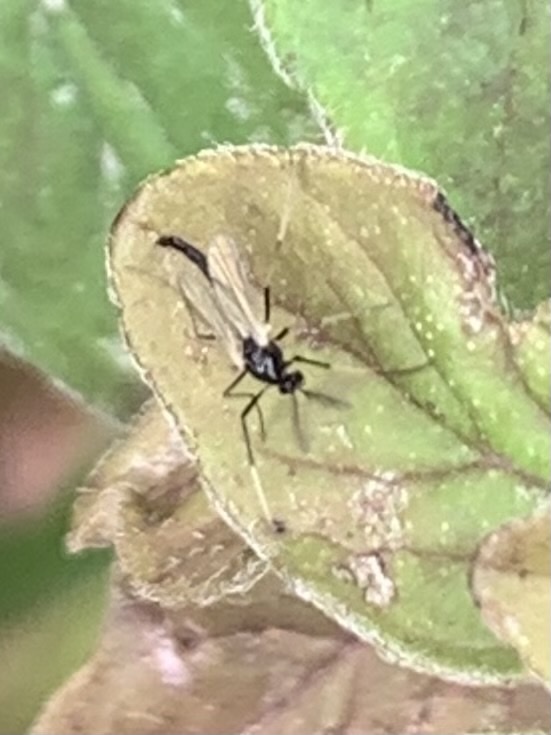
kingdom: Animalia
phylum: Arthropoda
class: Insecta
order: Diptera
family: Chironomidae
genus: Paratendipes
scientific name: Paratendipes albimanus
